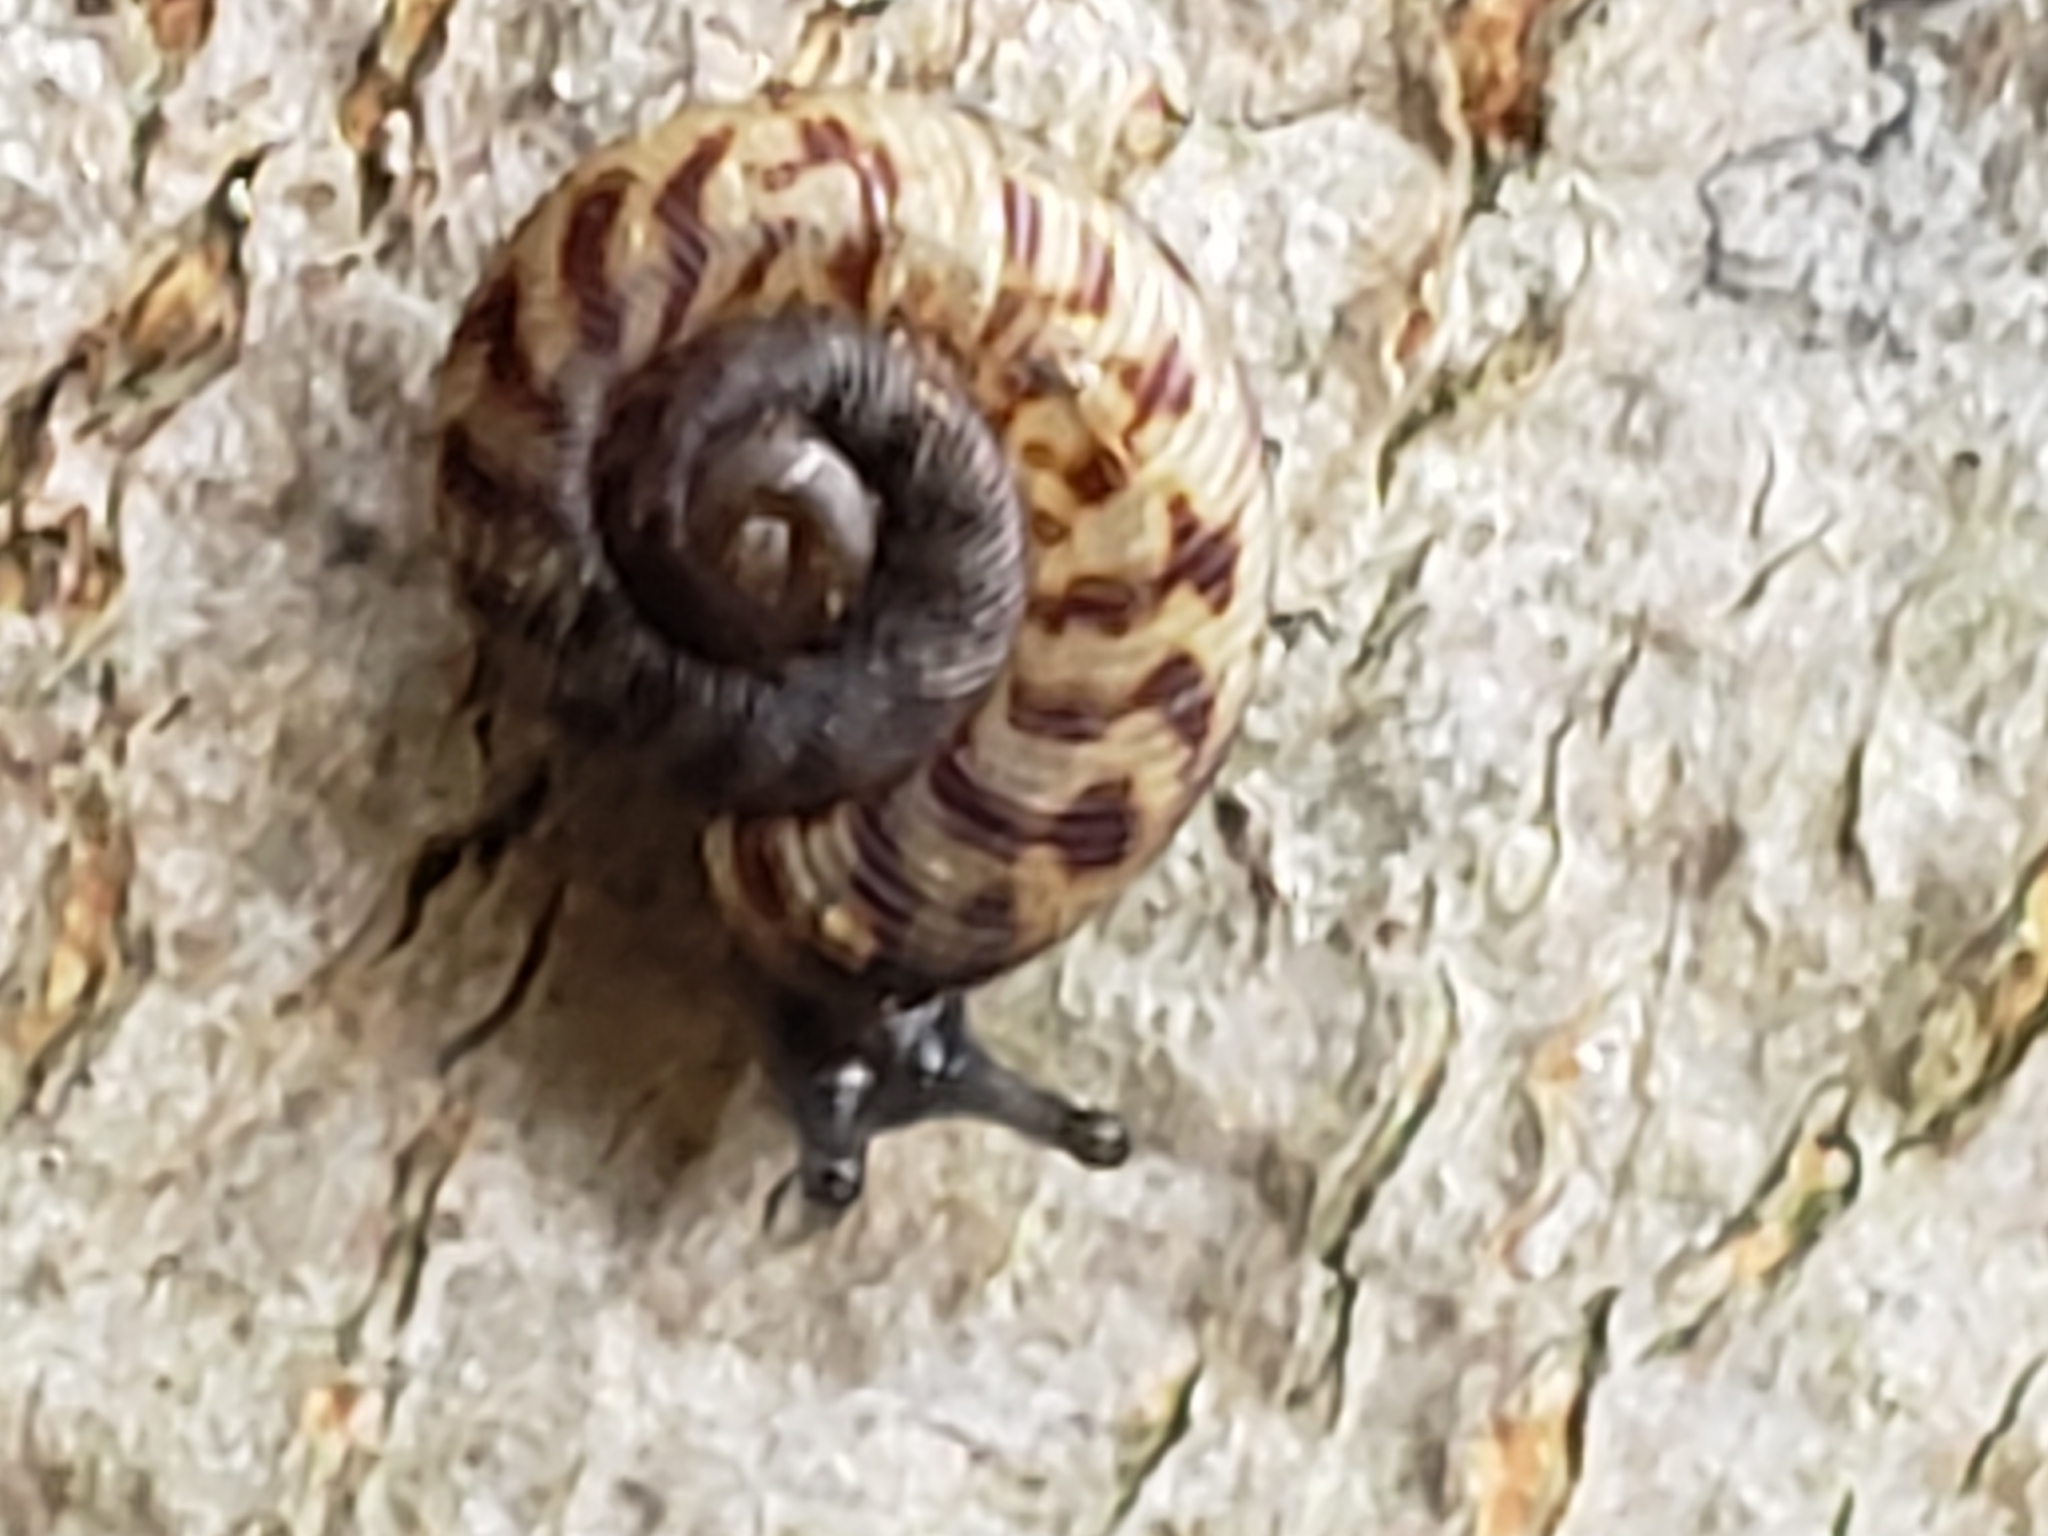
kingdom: Animalia
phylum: Mollusca
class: Gastropoda
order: Stylommatophora
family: Discidae
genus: Anguispira
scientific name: Anguispira alternata
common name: Flamed tigersnail
